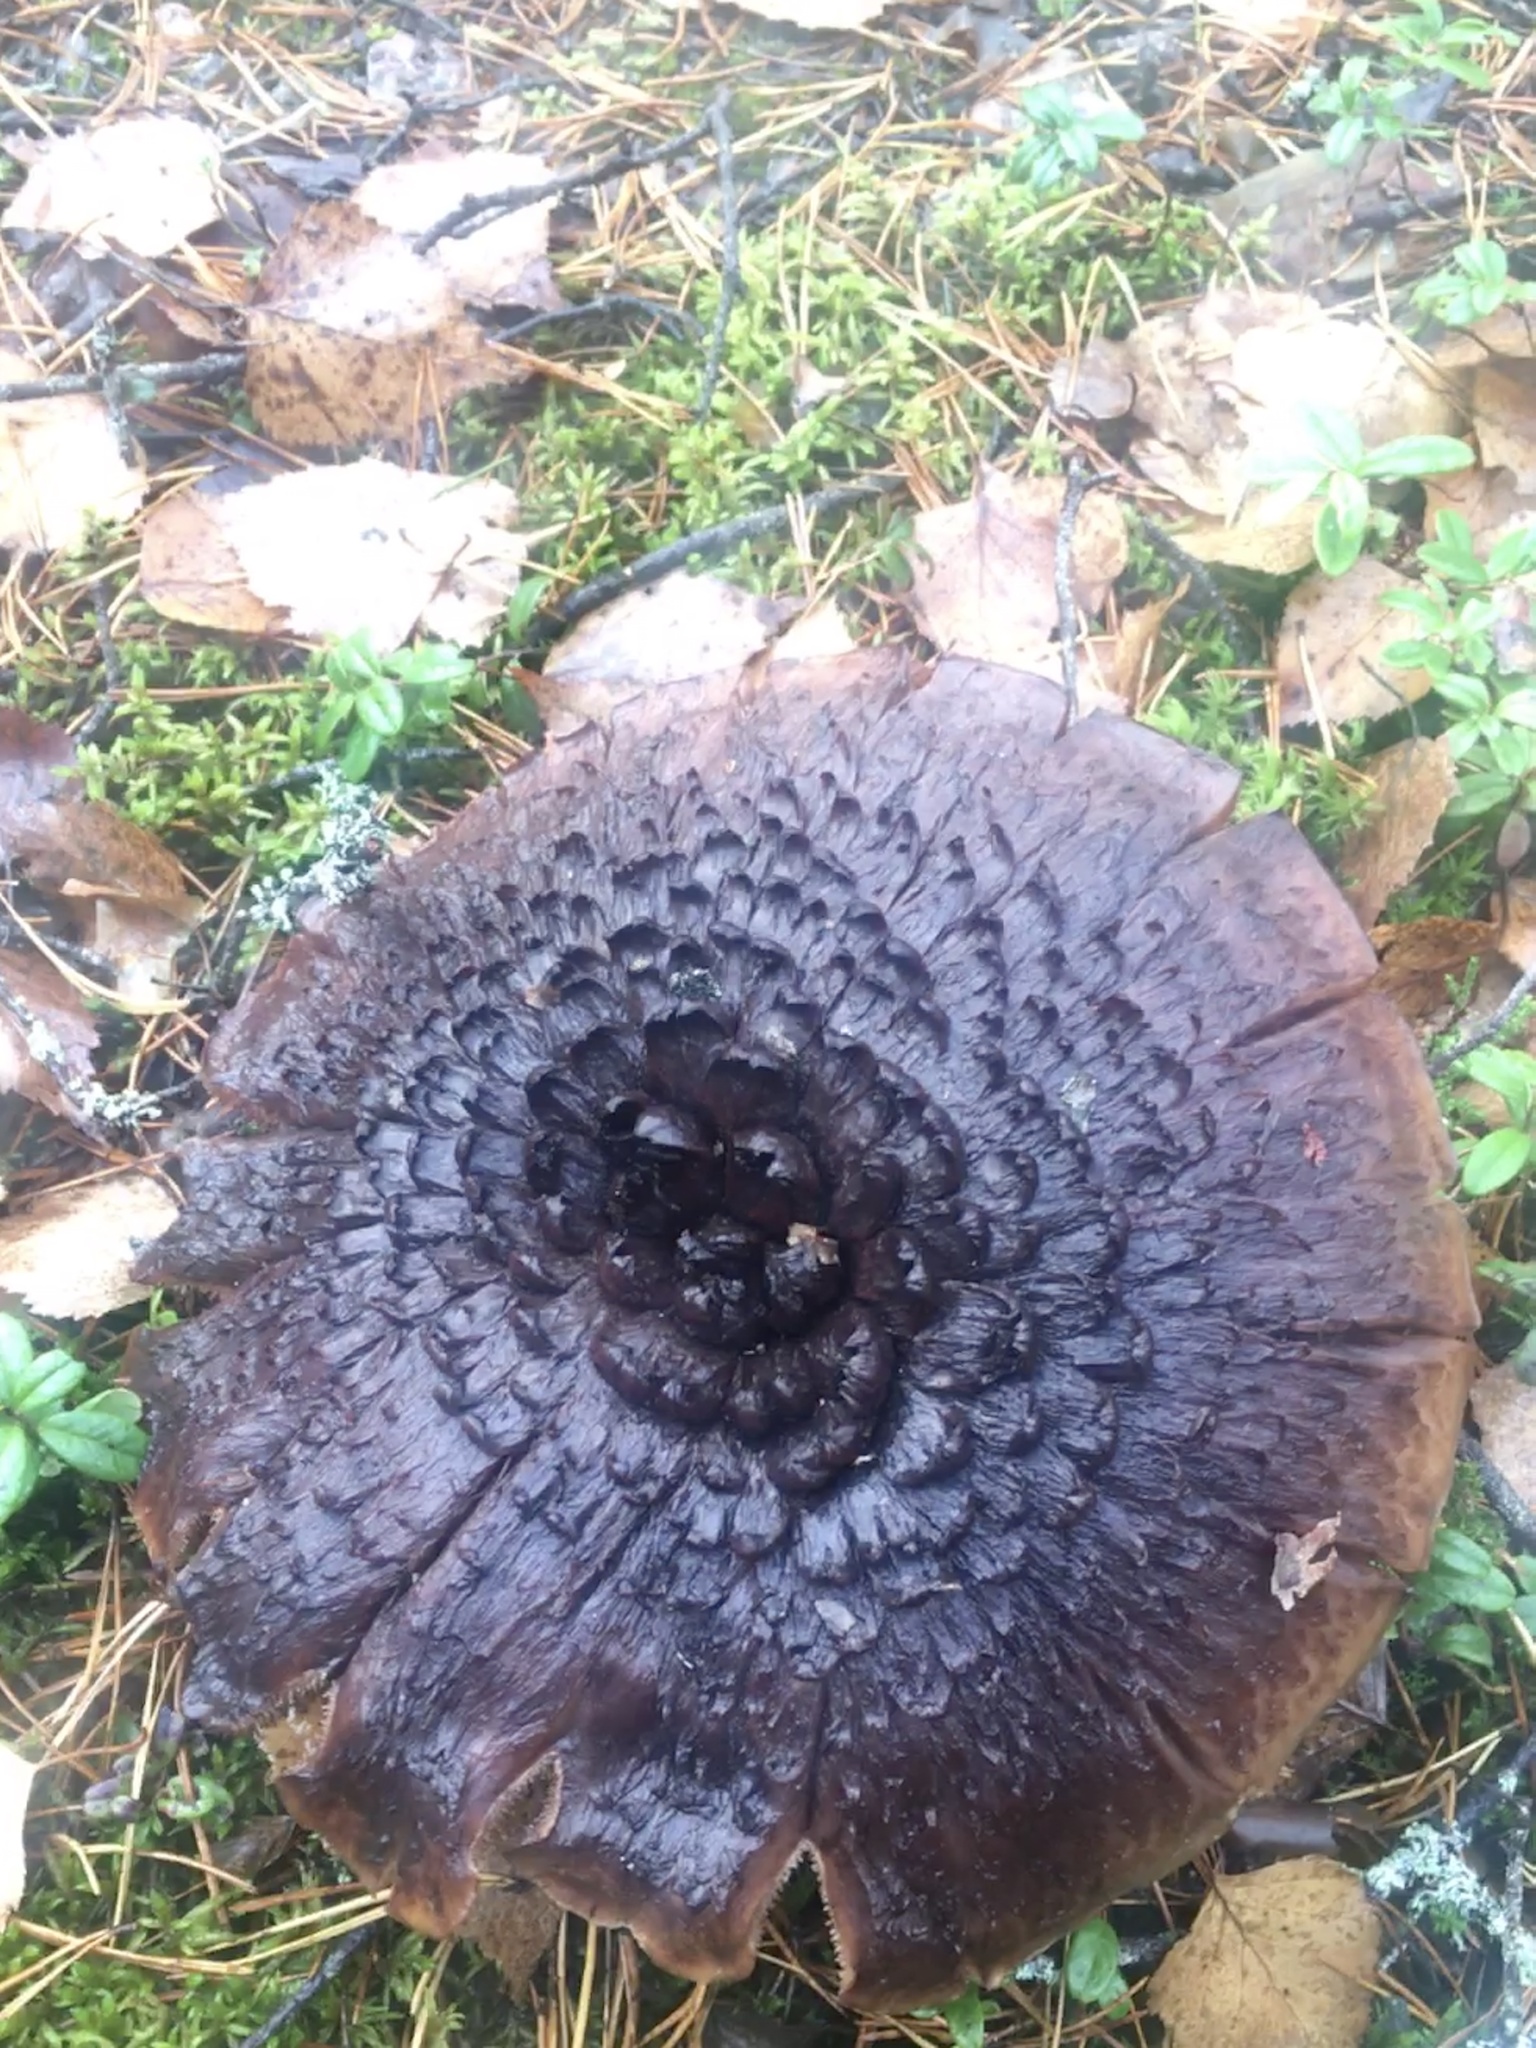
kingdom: Fungi
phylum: Basidiomycota
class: Agaricomycetes
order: Thelephorales
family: Bankeraceae
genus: Sarcodon
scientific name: Sarcodon imbricatus
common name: Shingled hedgehog
